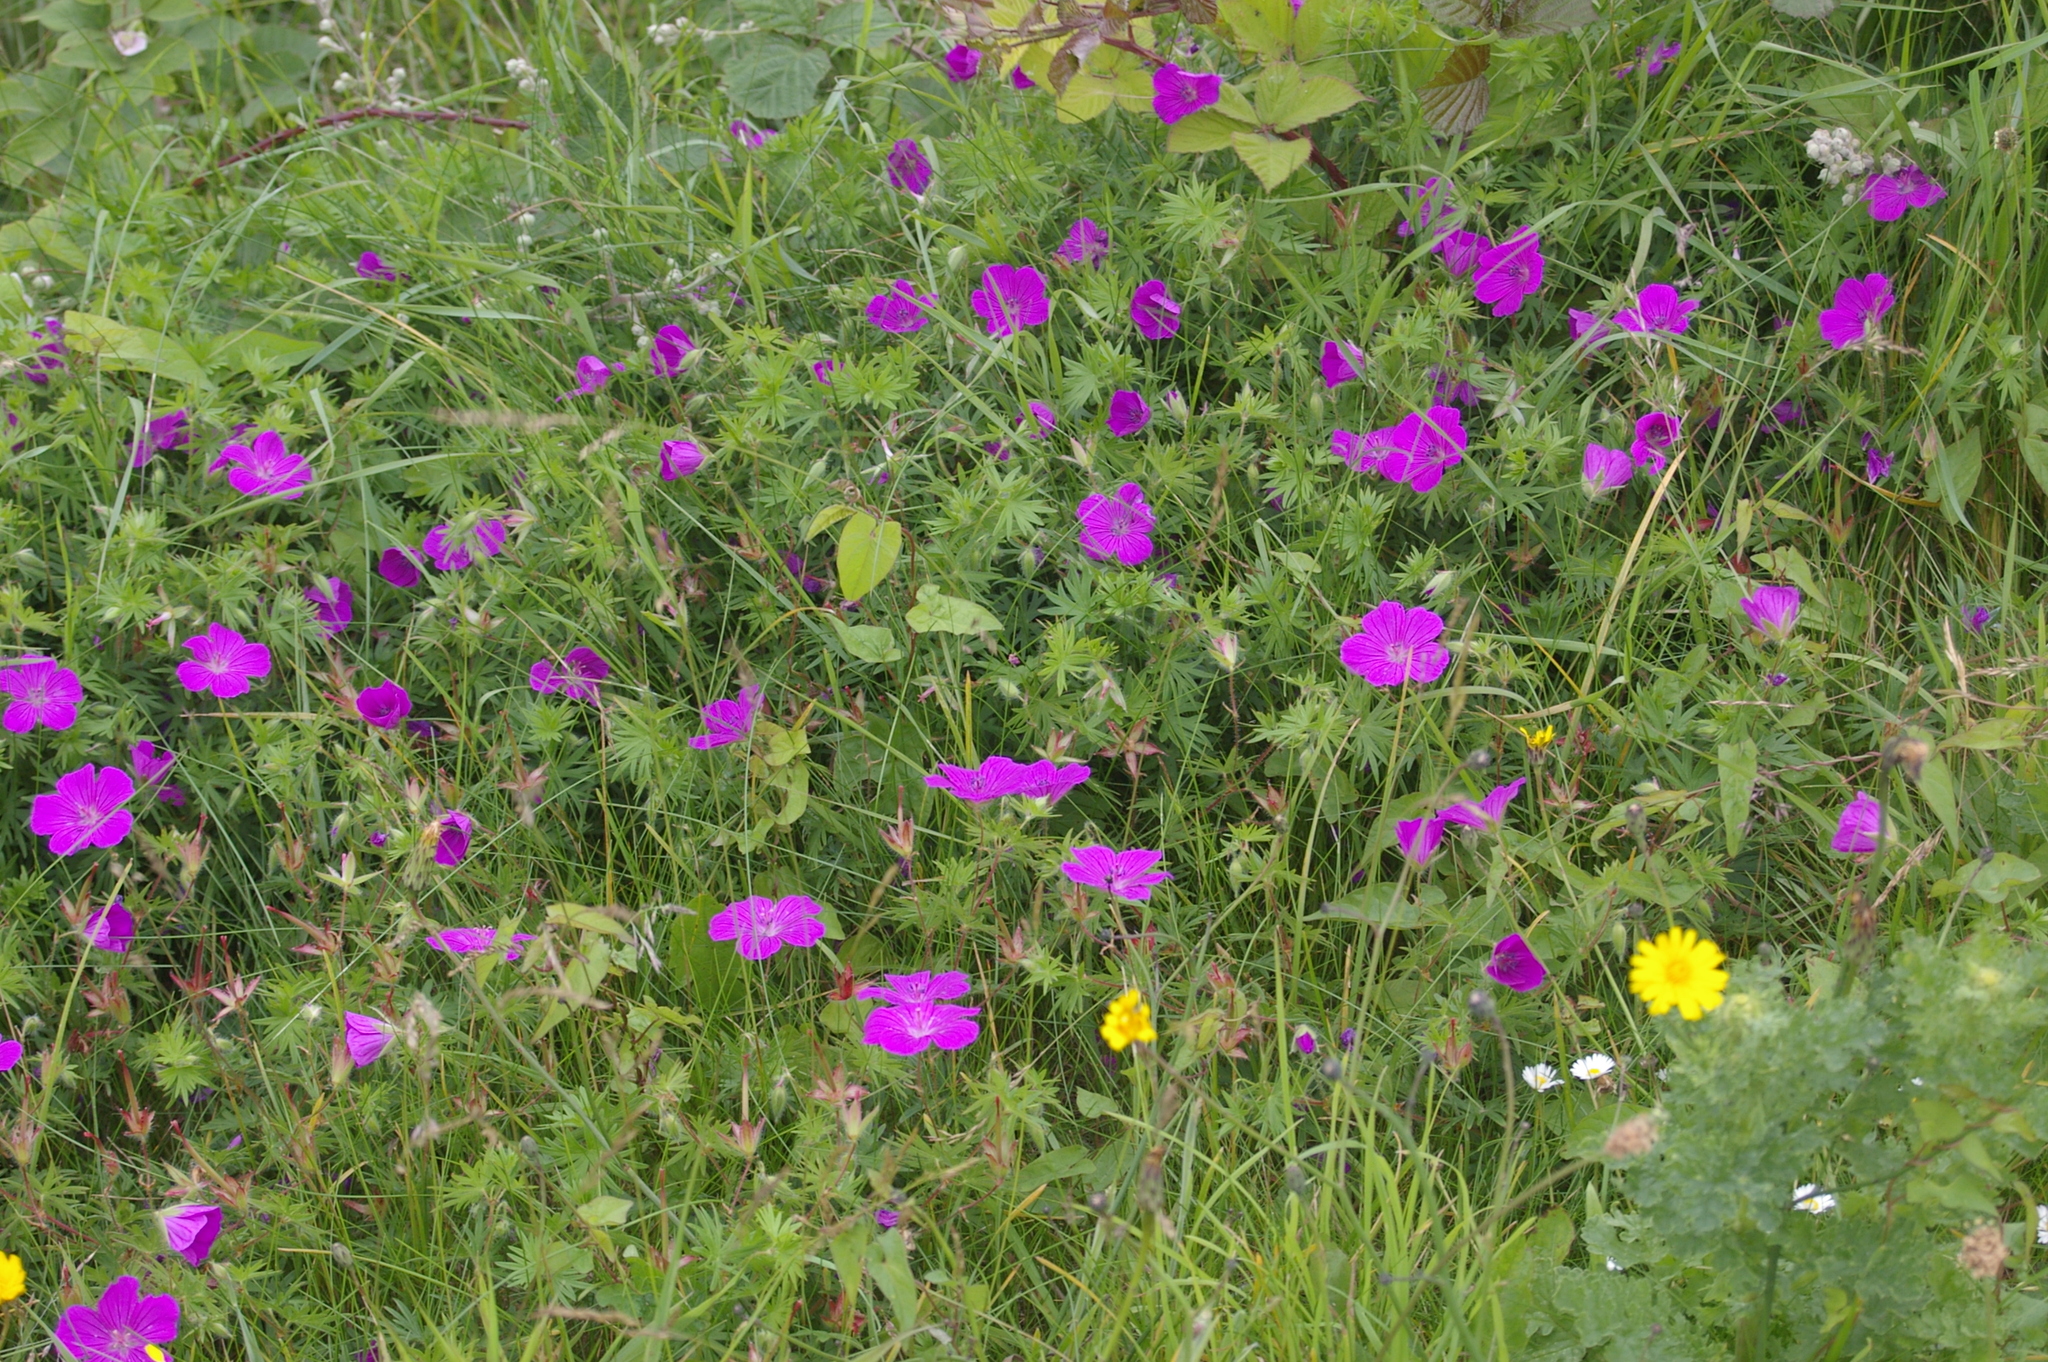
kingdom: Plantae
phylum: Tracheophyta
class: Magnoliopsida
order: Geraniales
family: Geraniaceae
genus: Geranium
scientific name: Geranium sanguineum
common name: Bloody crane's-bill
